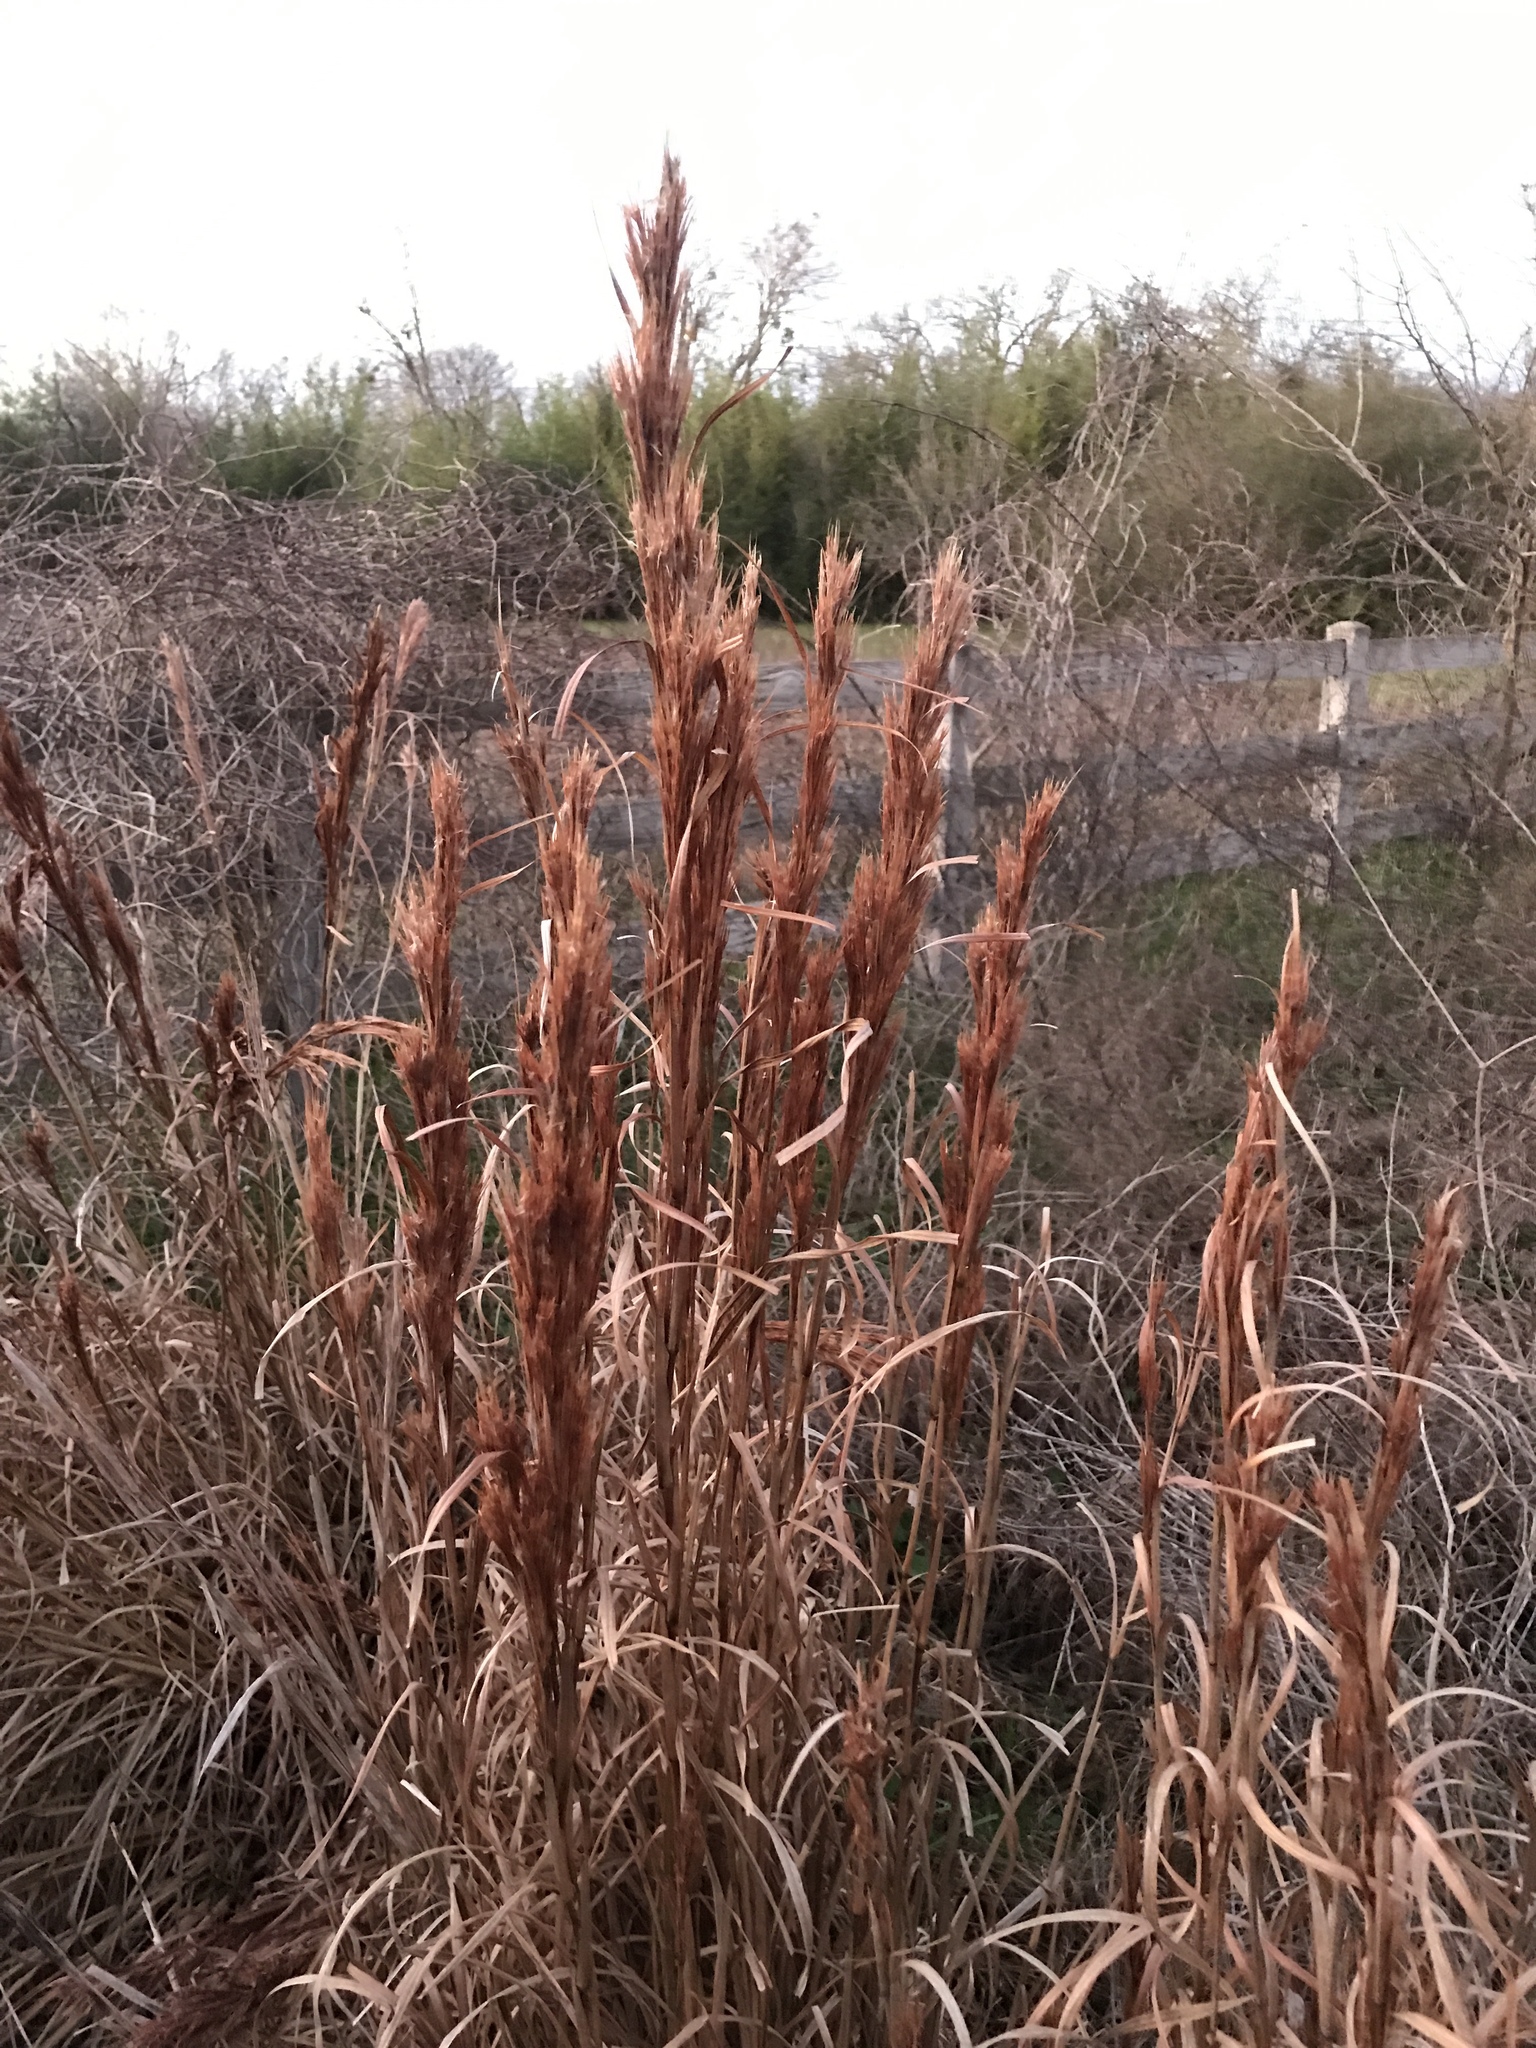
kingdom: Plantae
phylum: Tracheophyta
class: Liliopsida
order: Poales
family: Poaceae
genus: Andropogon
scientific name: Andropogon tenuispatheus
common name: Bushy bluestem
